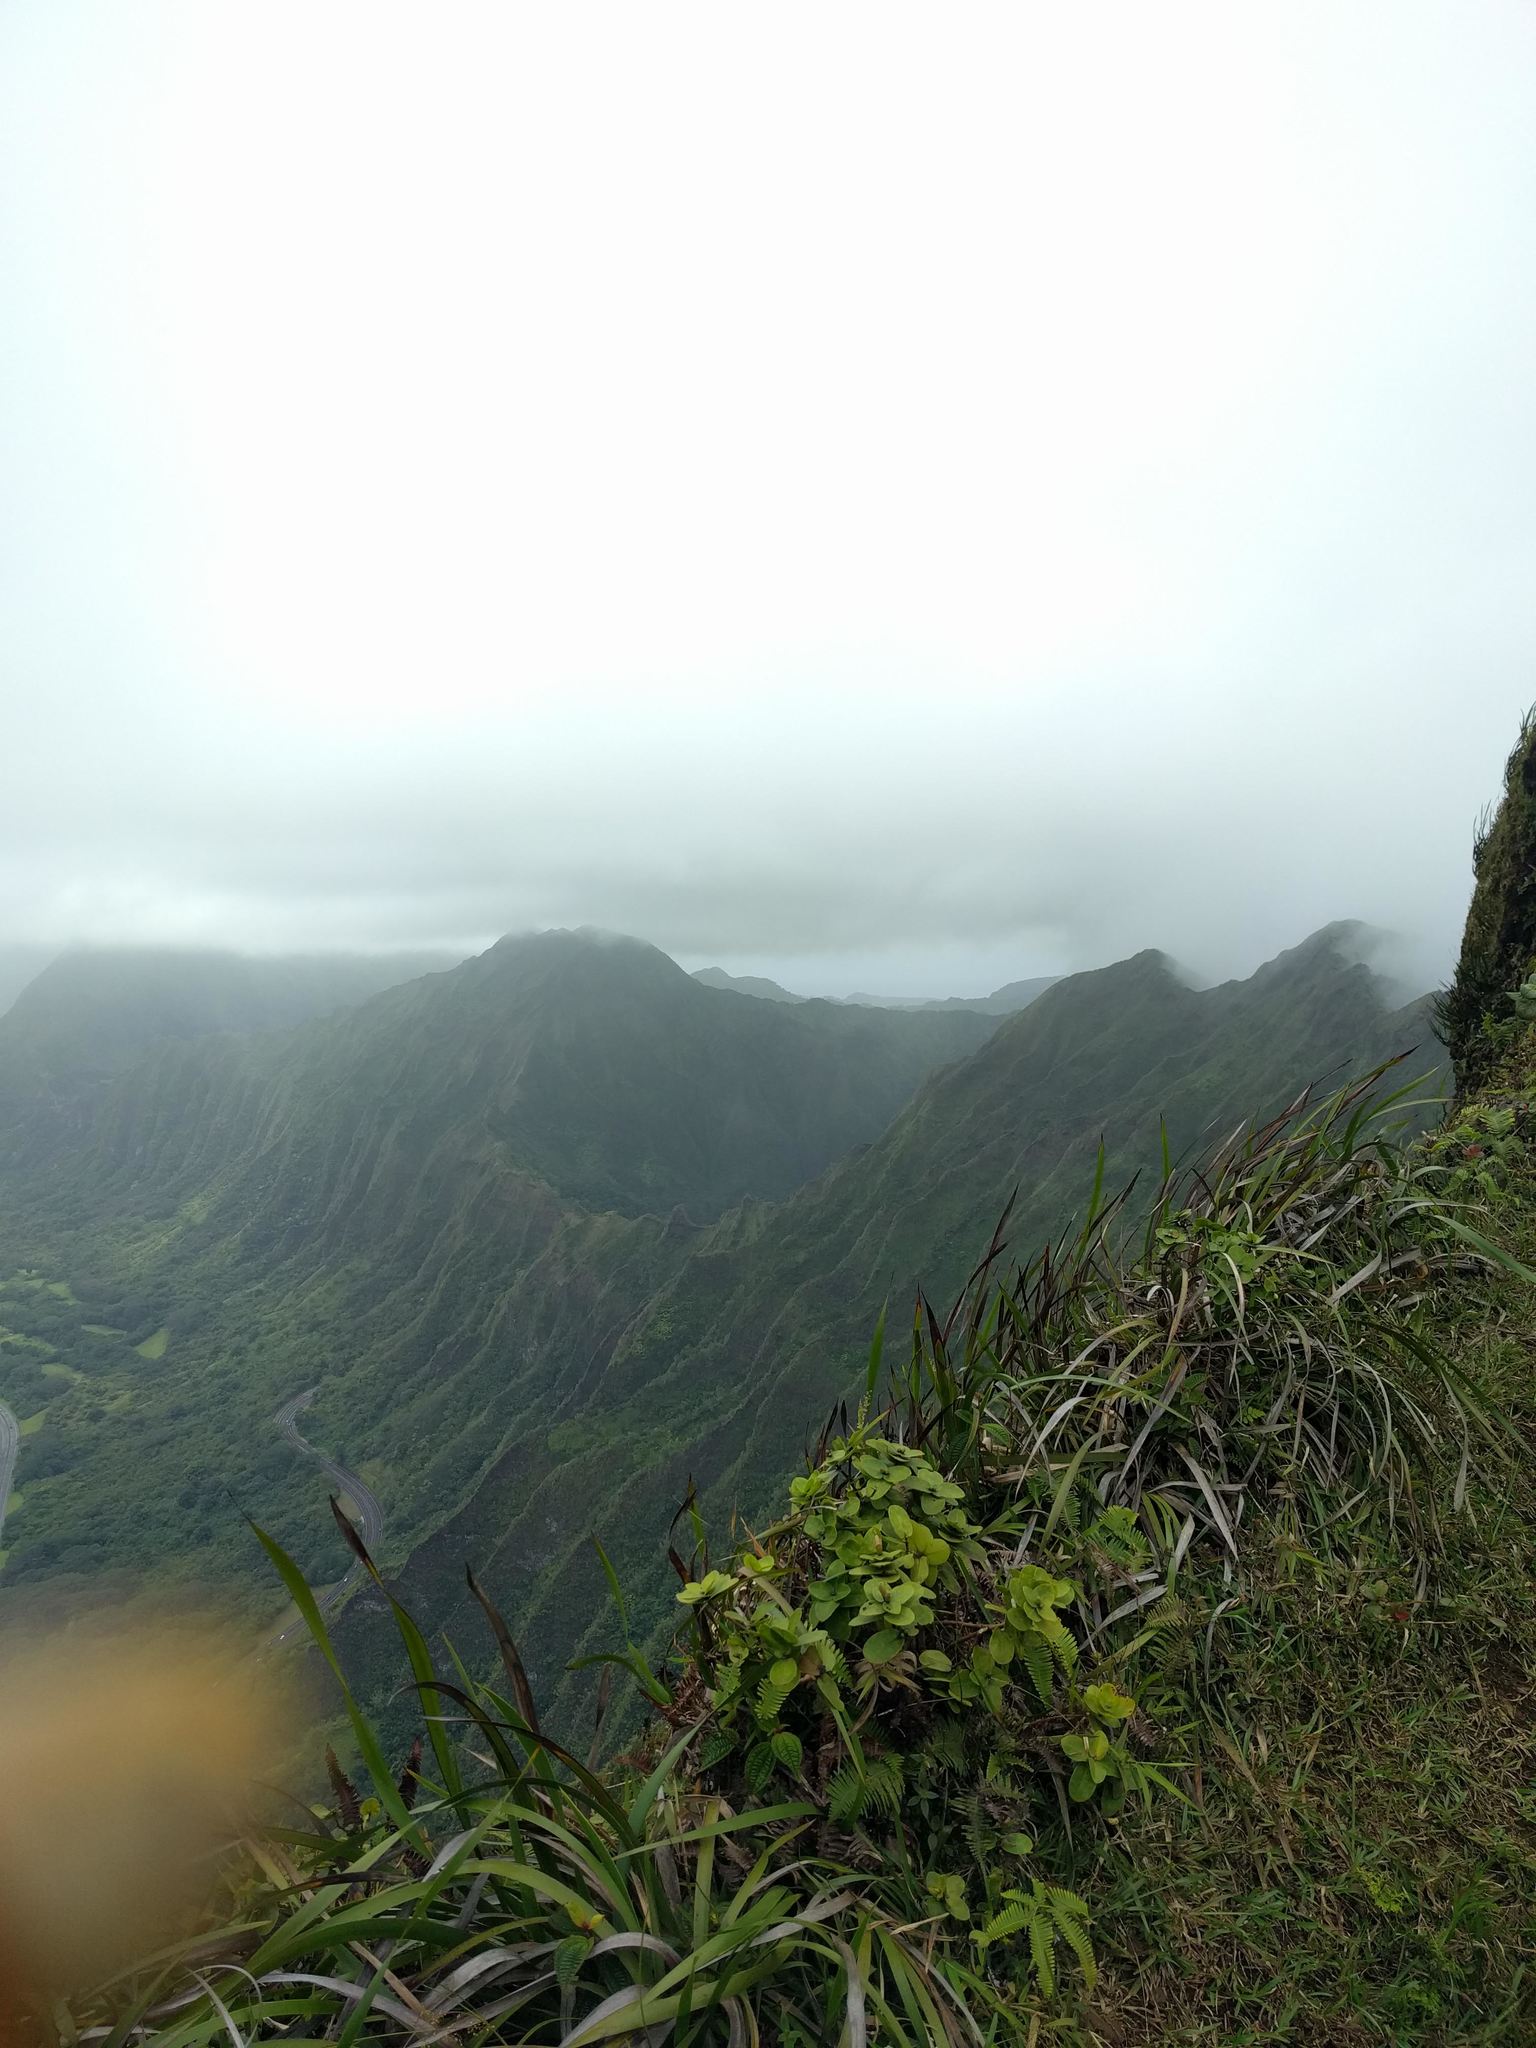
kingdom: Plantae
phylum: Tracheophyta
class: Liliopsida
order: Poales
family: Cyperaceae
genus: Machaerina
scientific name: Machaerina angustifolia
